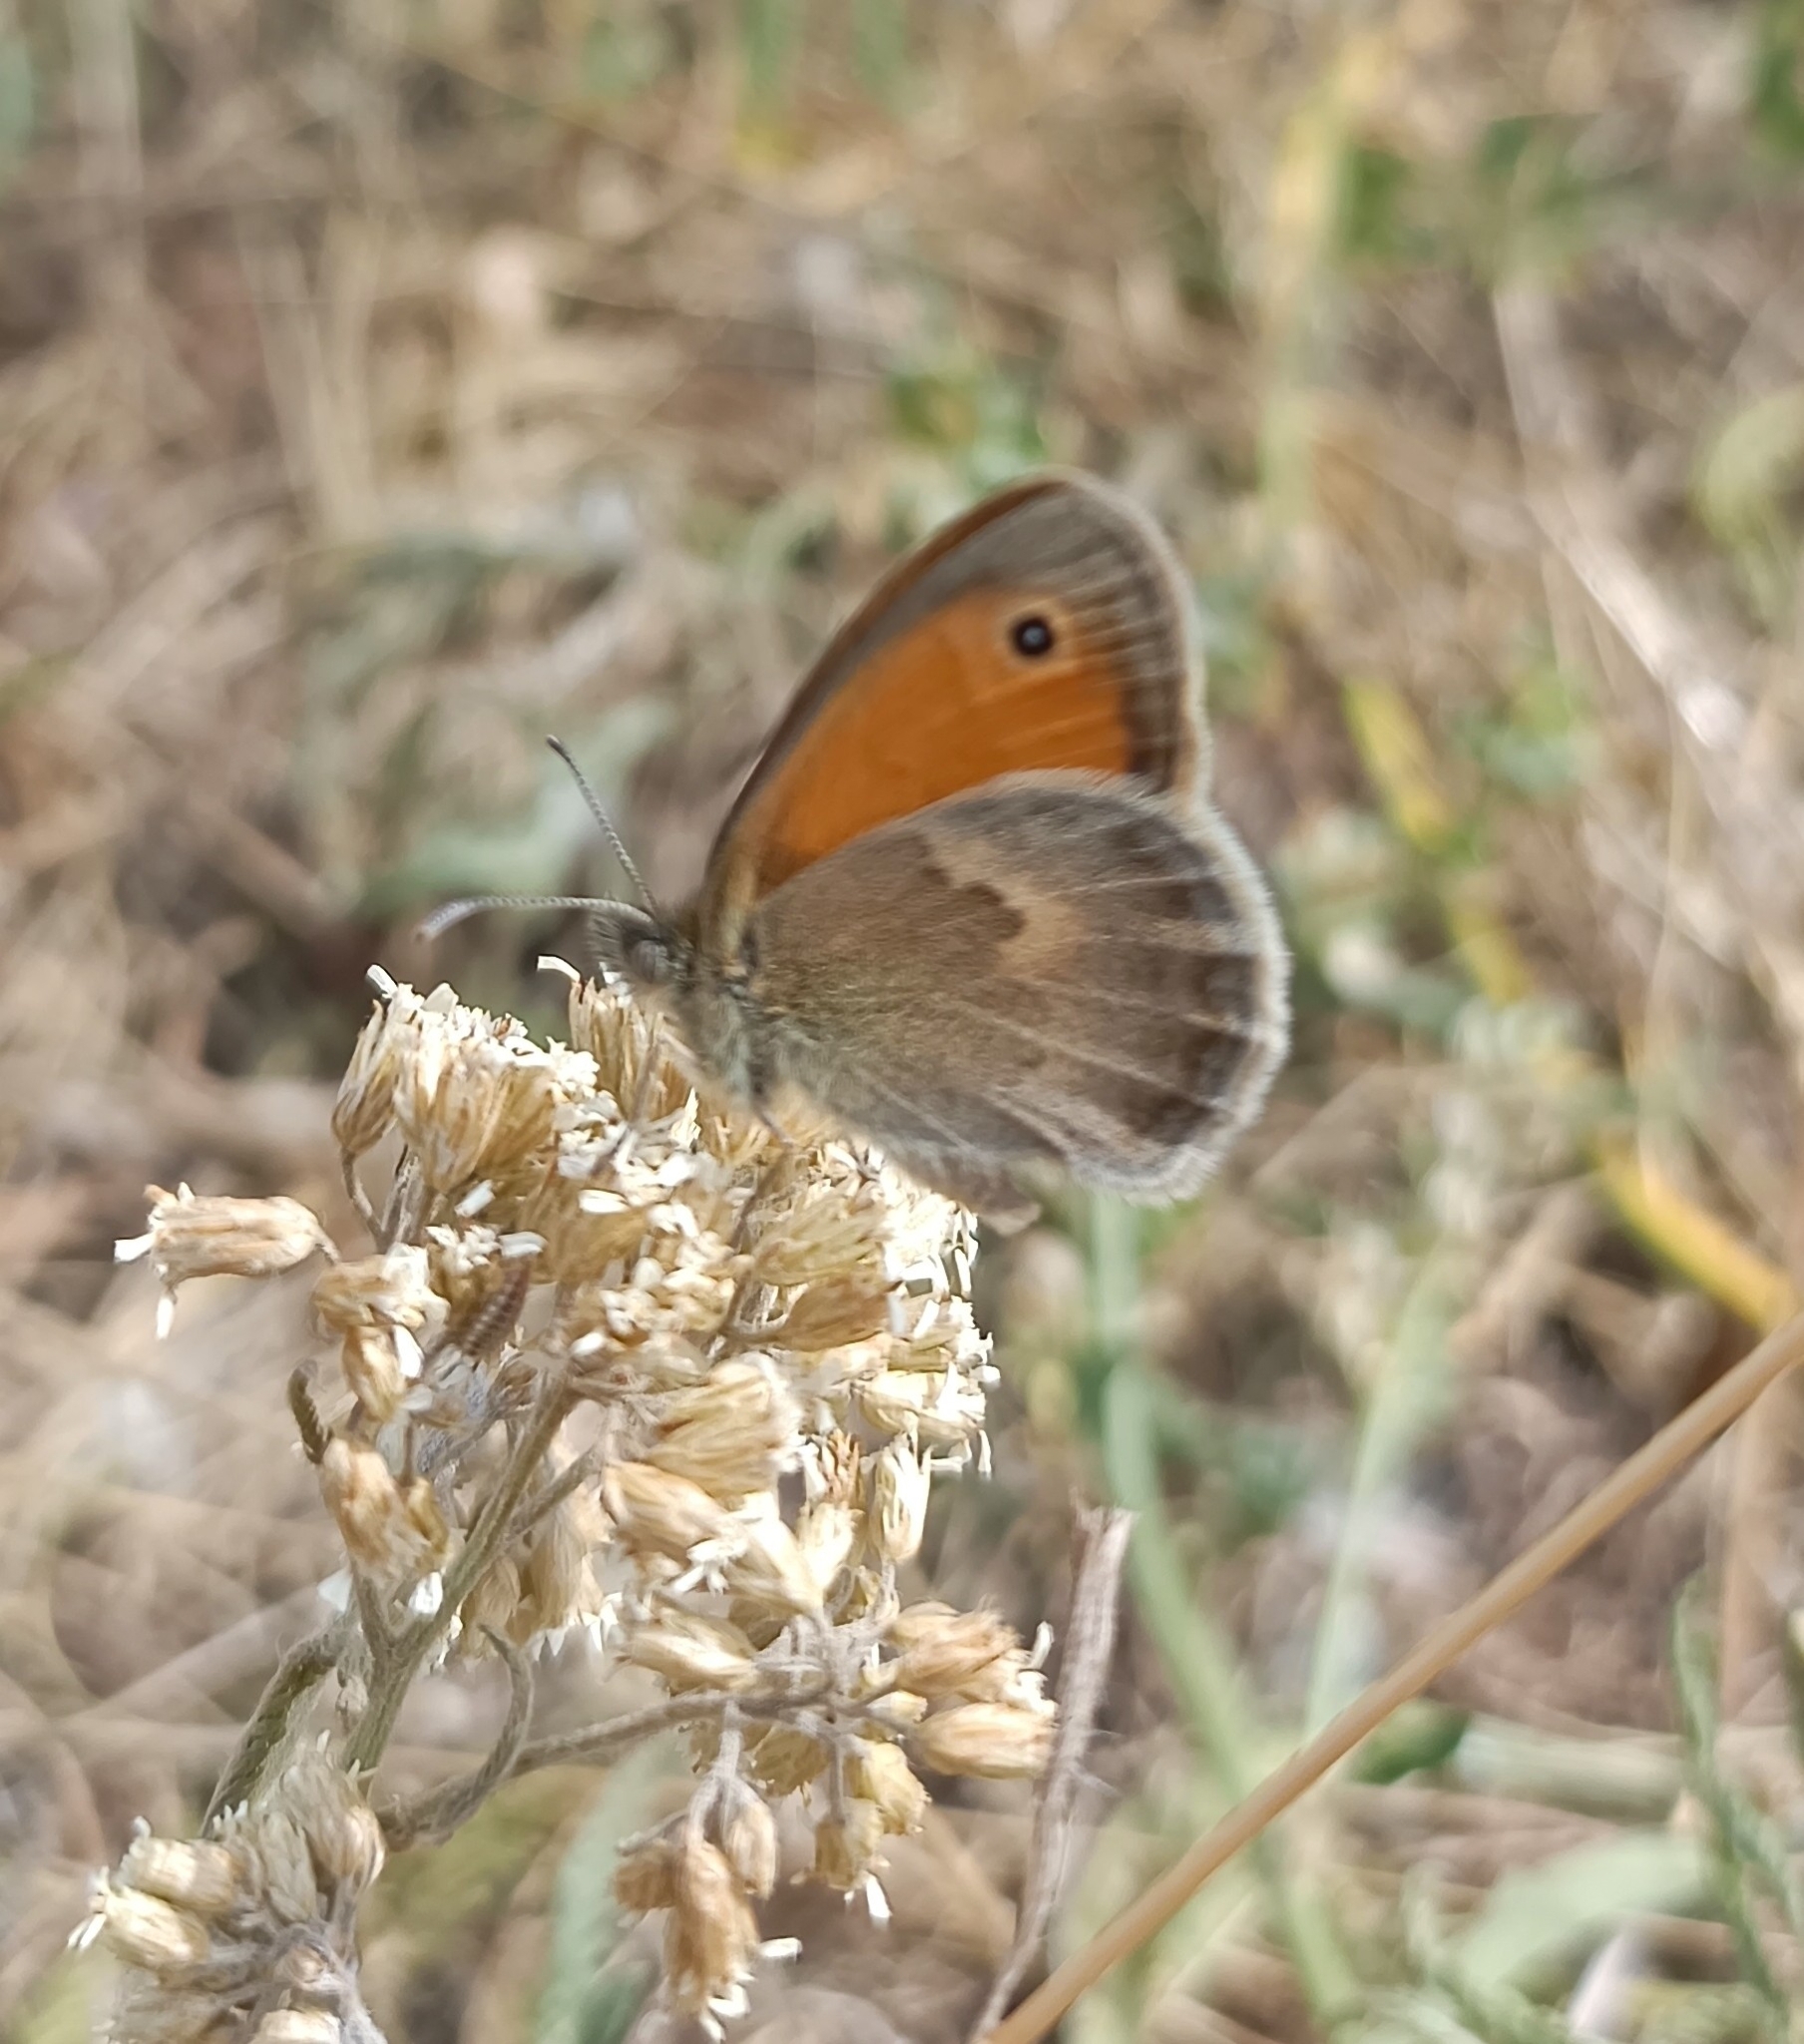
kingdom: Animalia
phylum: Arthropoda
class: Insecta
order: Lepidoptera
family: Nymphalidae
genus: Coenonympha
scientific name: Coenonympha pamphilus
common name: Small heath
